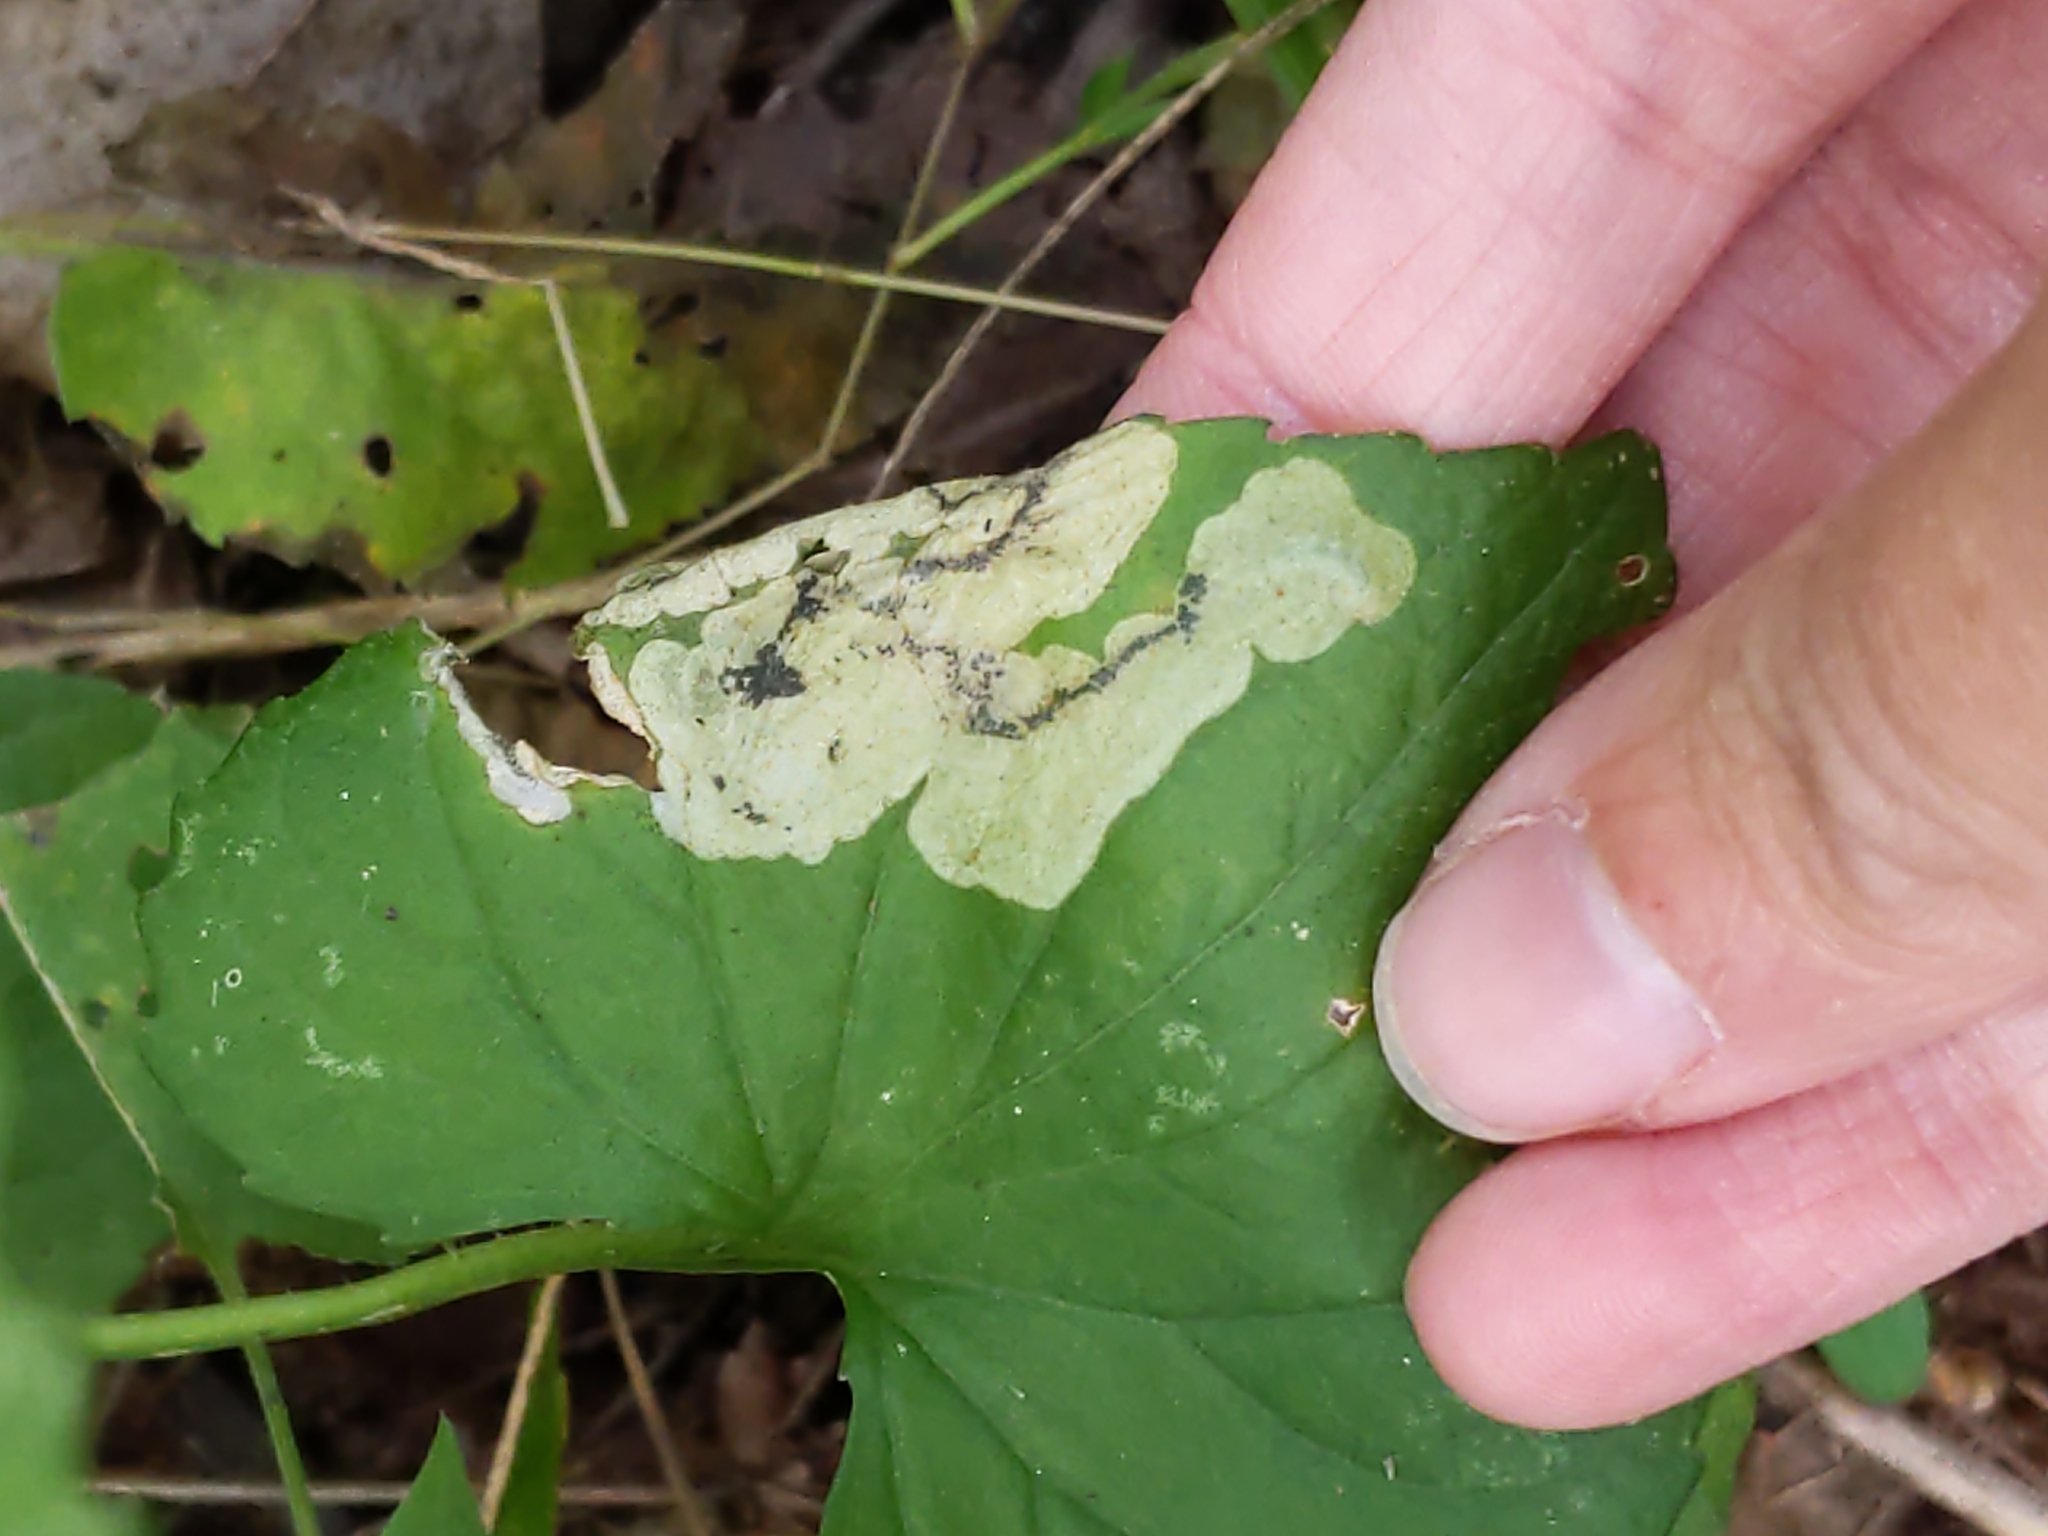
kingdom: Animalia
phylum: Arthropoda
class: Insecta
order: Hymenoptera
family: Tenthredinidae
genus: Nefusa
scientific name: Nefusa ambigua
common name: Violet leafmining sawfly
